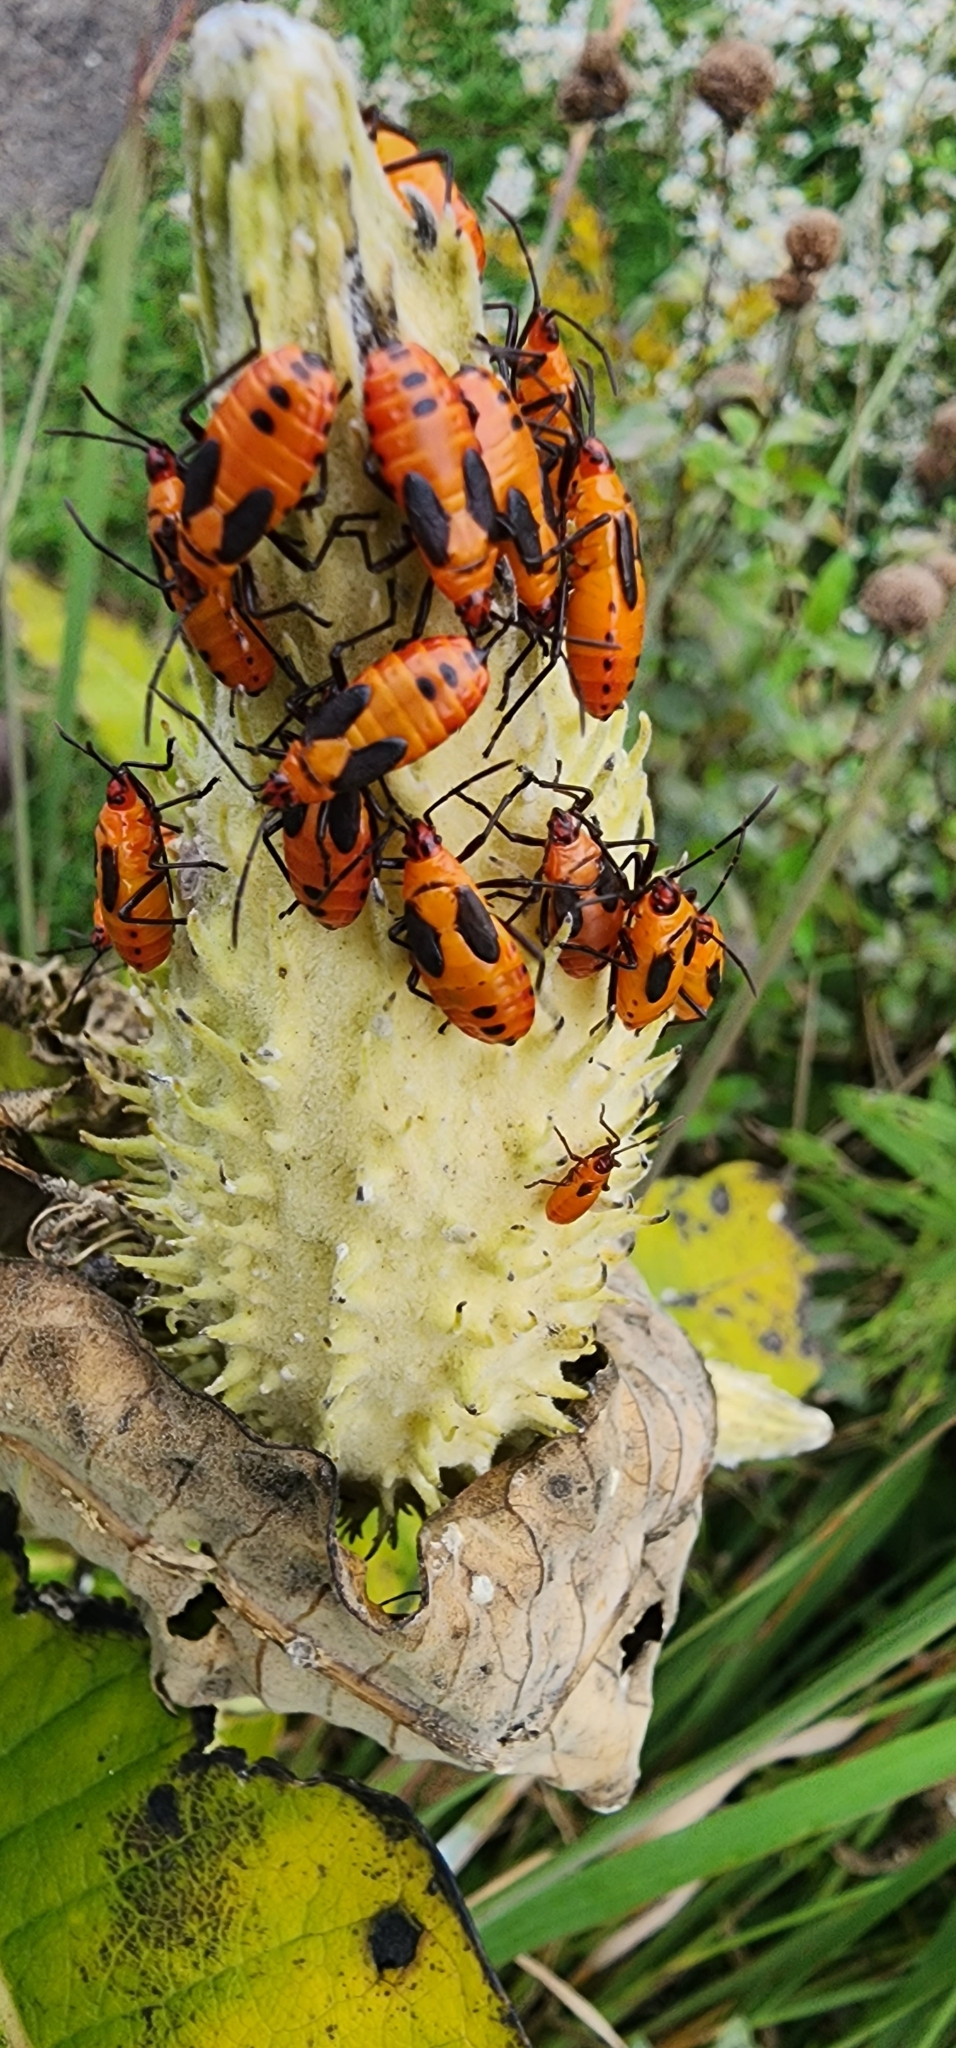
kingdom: Animalia
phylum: Arthropoda
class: Insecta
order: Hemiptera
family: Lygaeidae
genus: Oncopeltus
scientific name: Oncopeltus fasciatus
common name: Large milkweed bug
